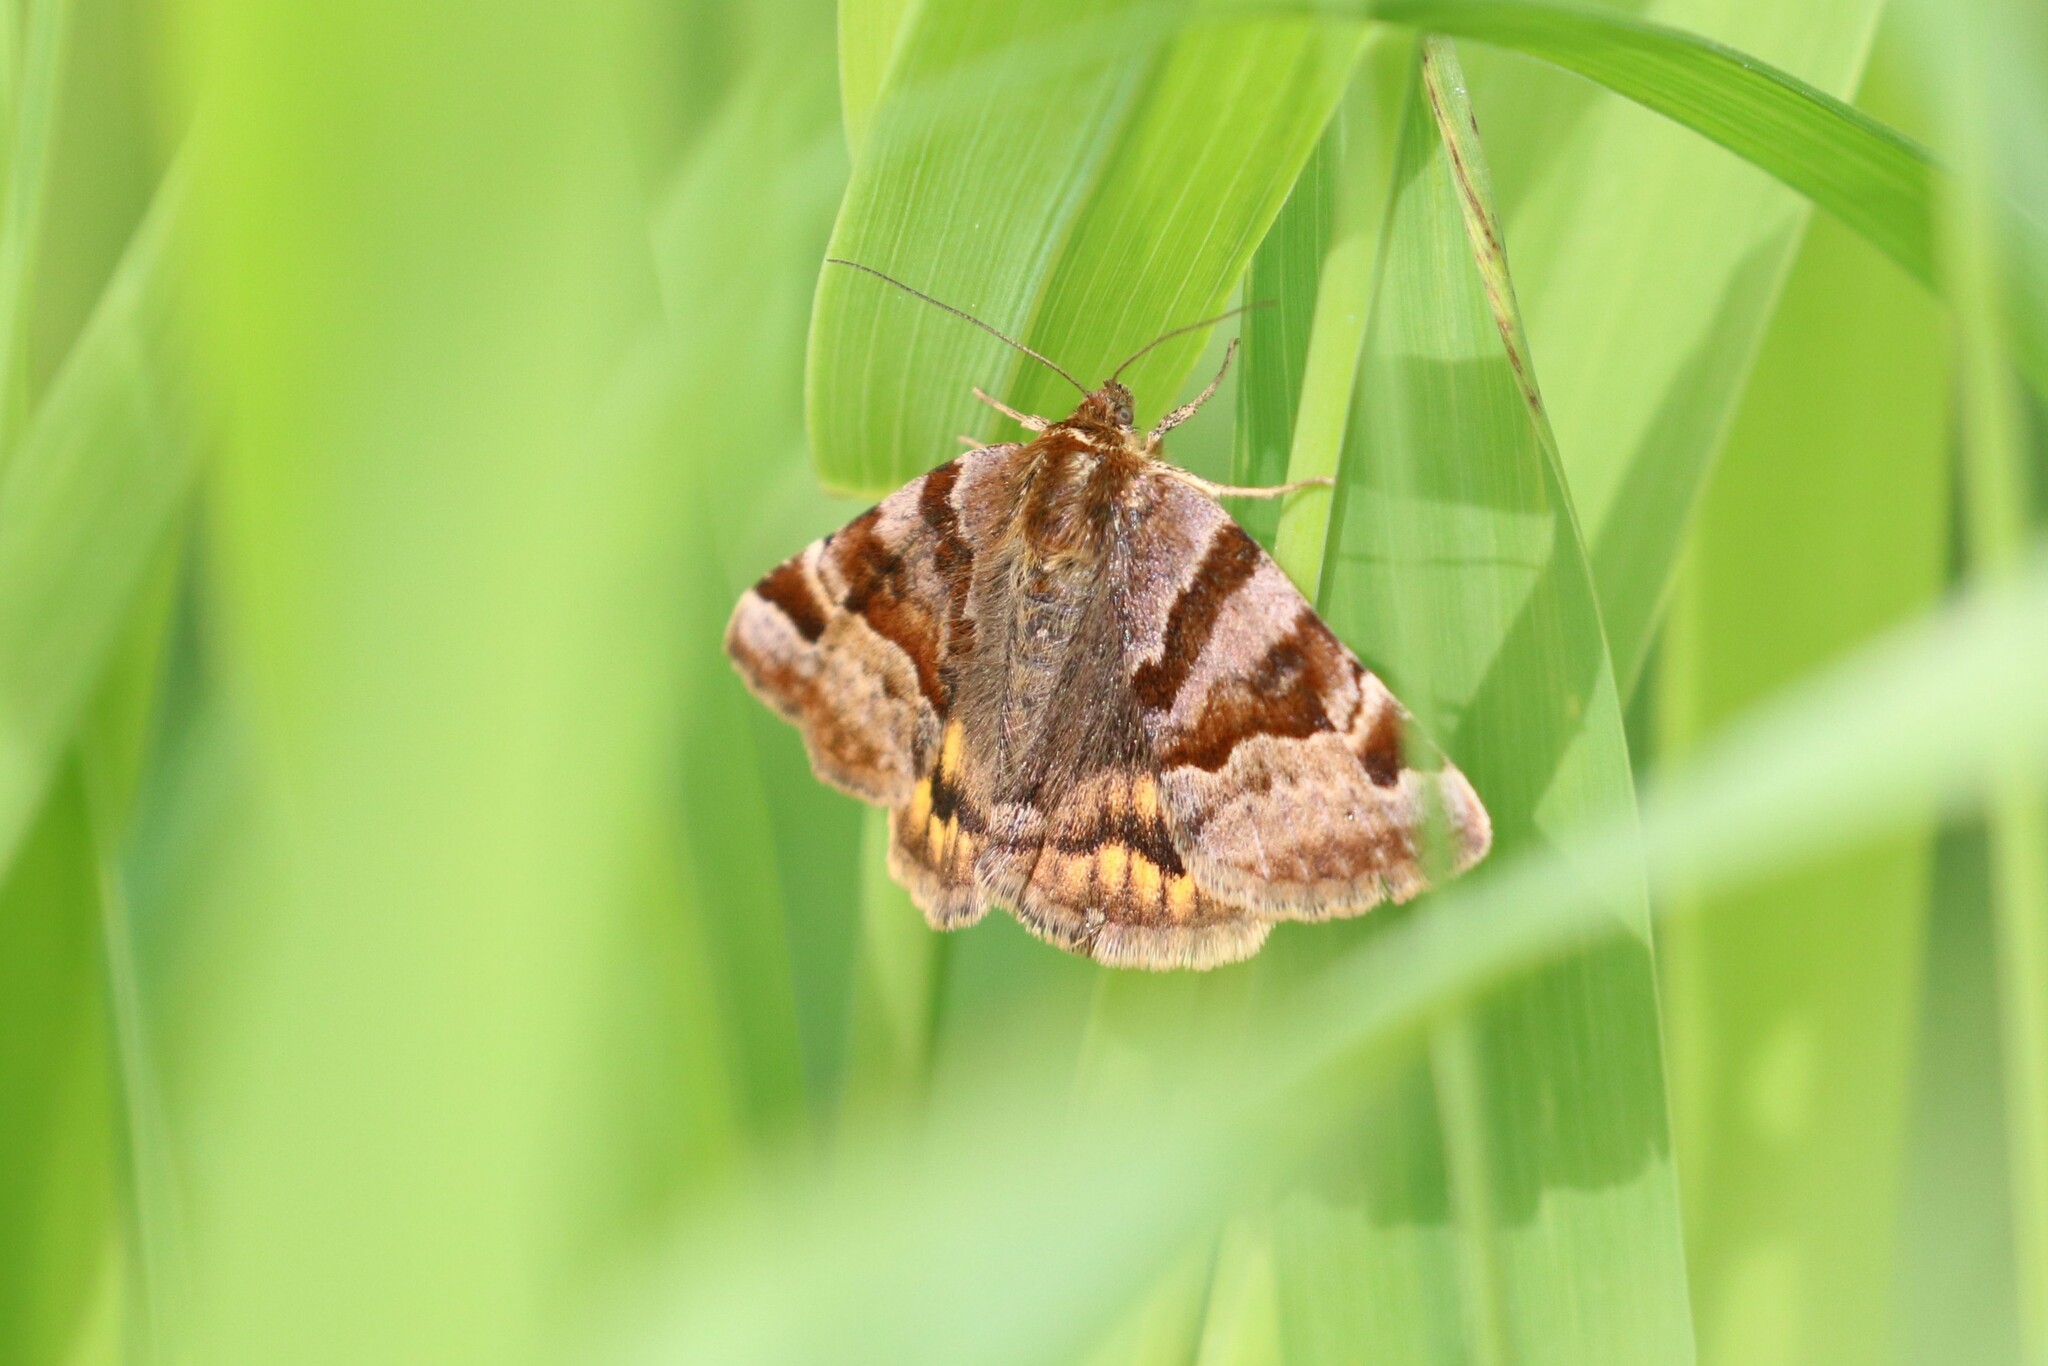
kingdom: Animalia
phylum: Arthropoda
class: Insecta
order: Lepidoptera
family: Erebidae
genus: Euclidia
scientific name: Euclidia glyphica
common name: Burnet companion
